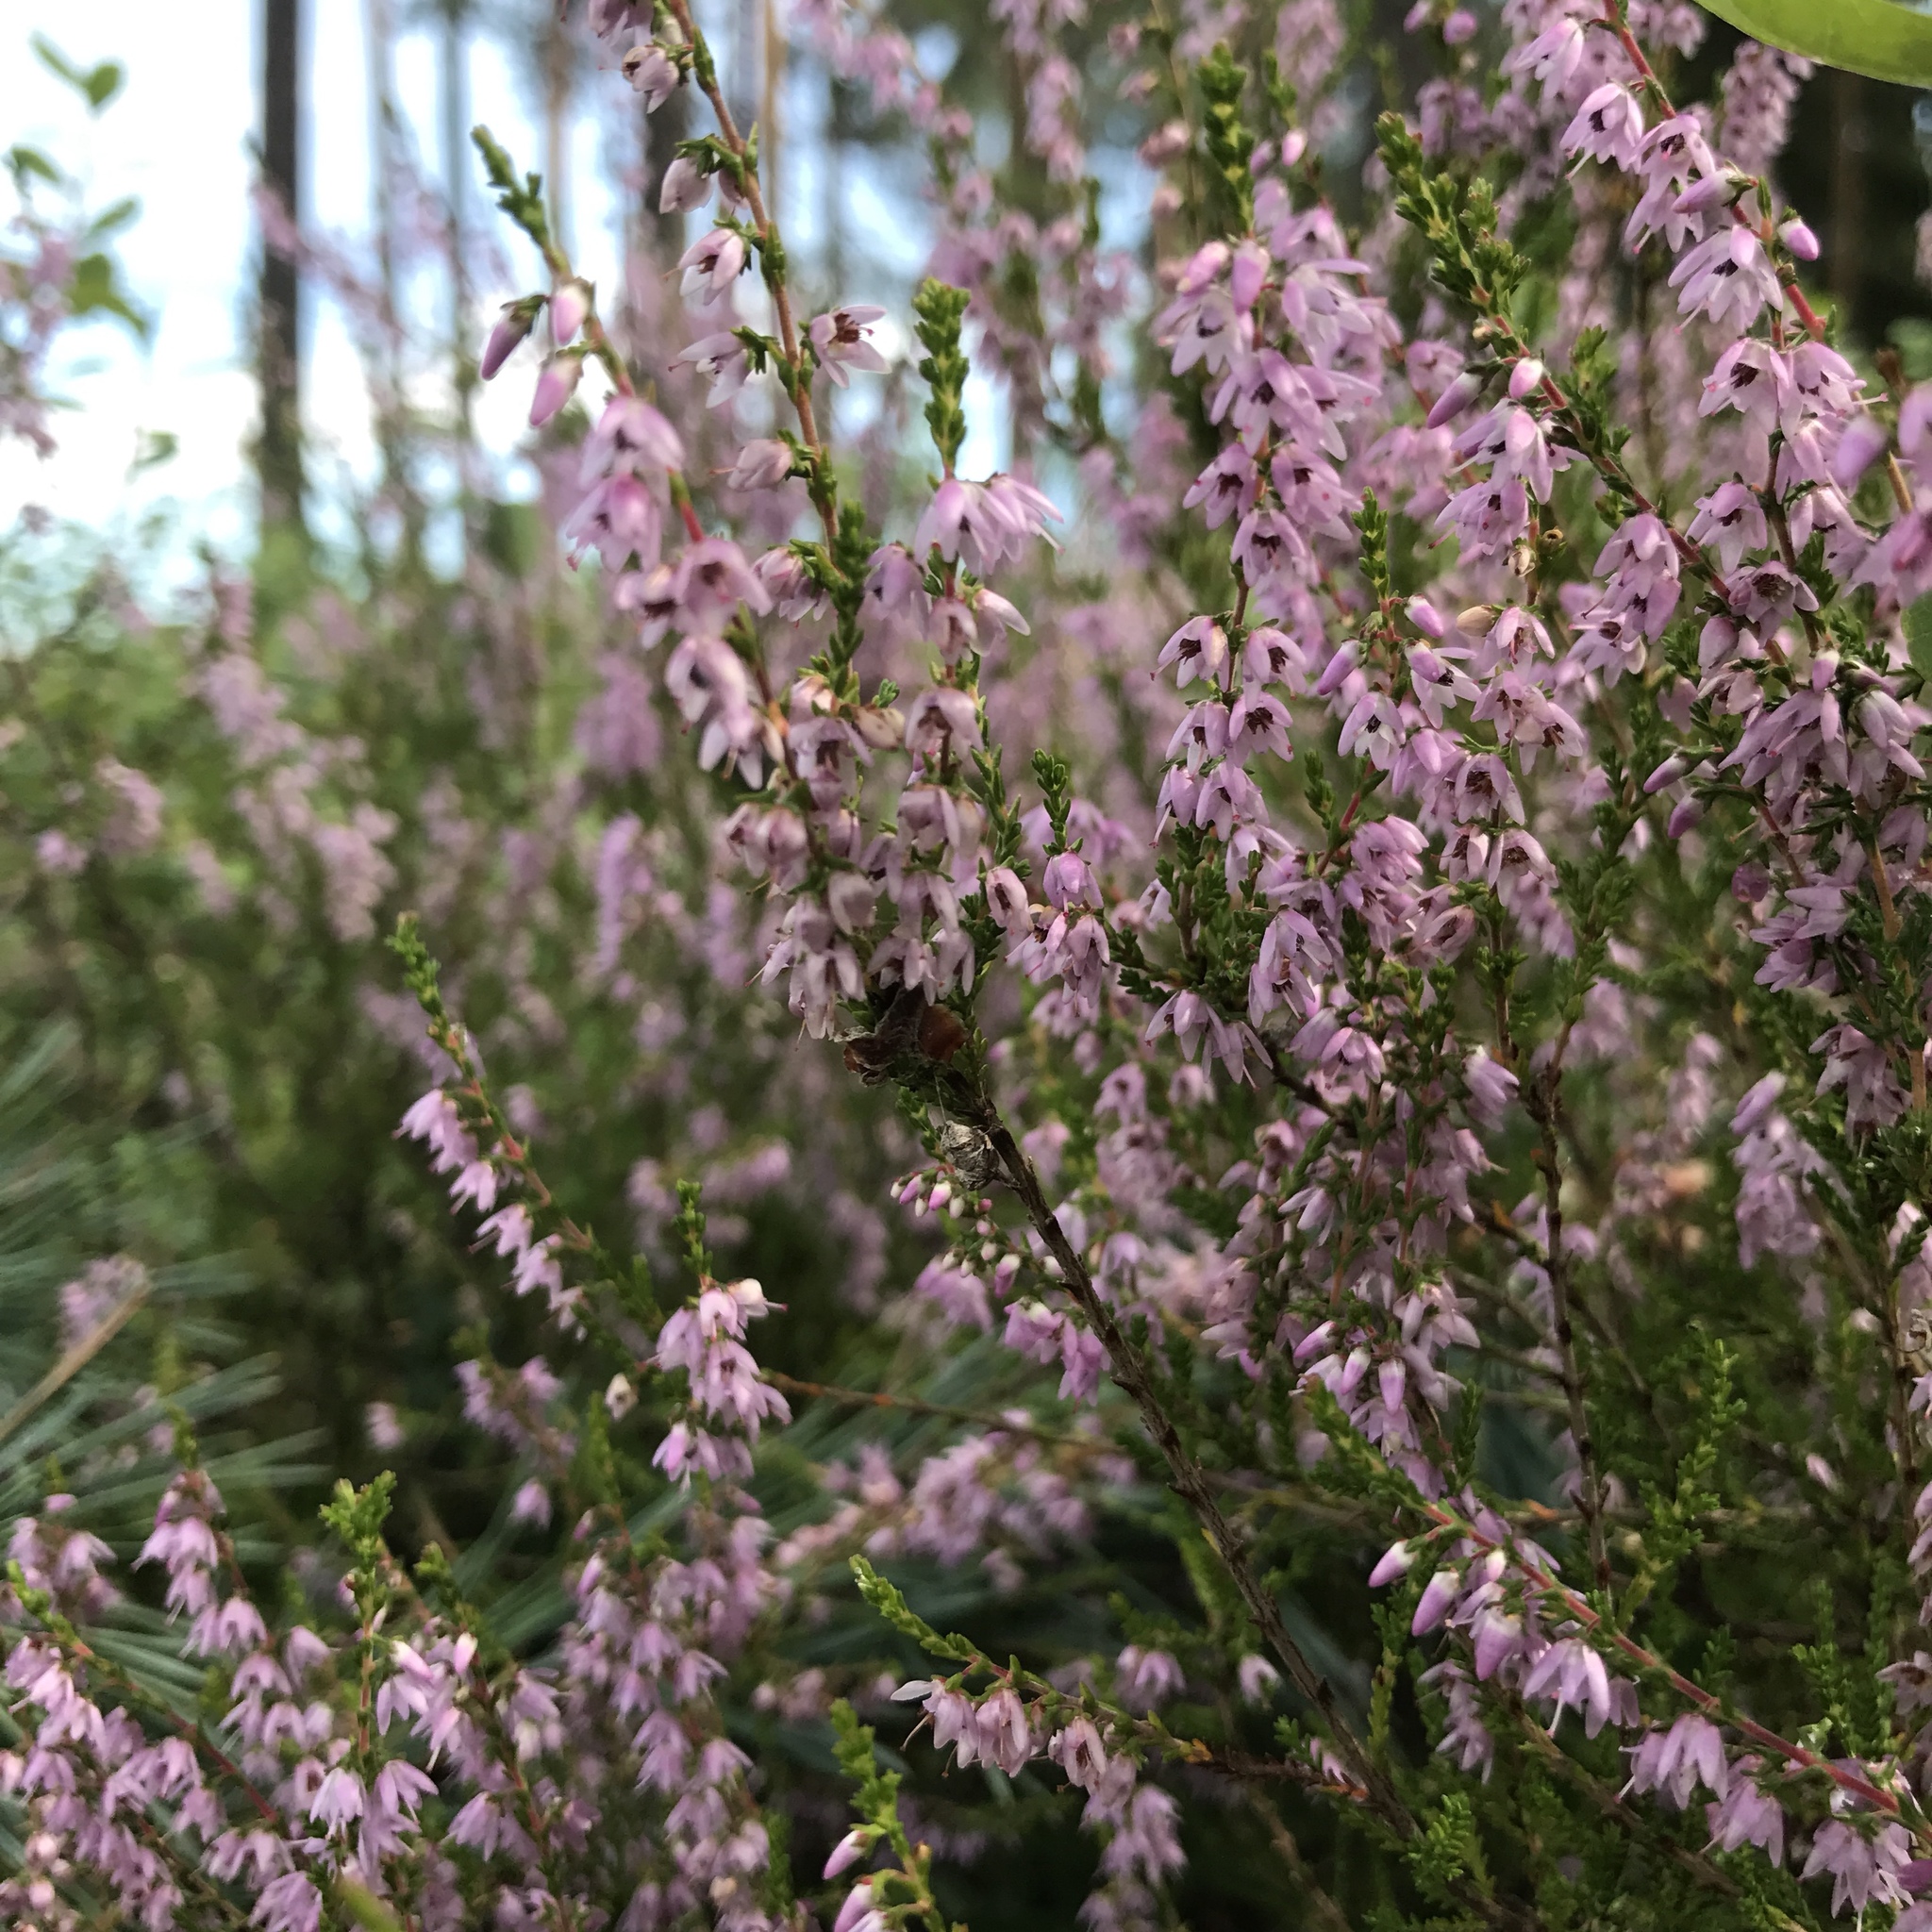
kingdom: Plantae
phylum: Tracheophyta
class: Magnoliopsida
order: Ericales
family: Ericaceae
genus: Calluna
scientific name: Calluna vulgaris
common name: Heather
